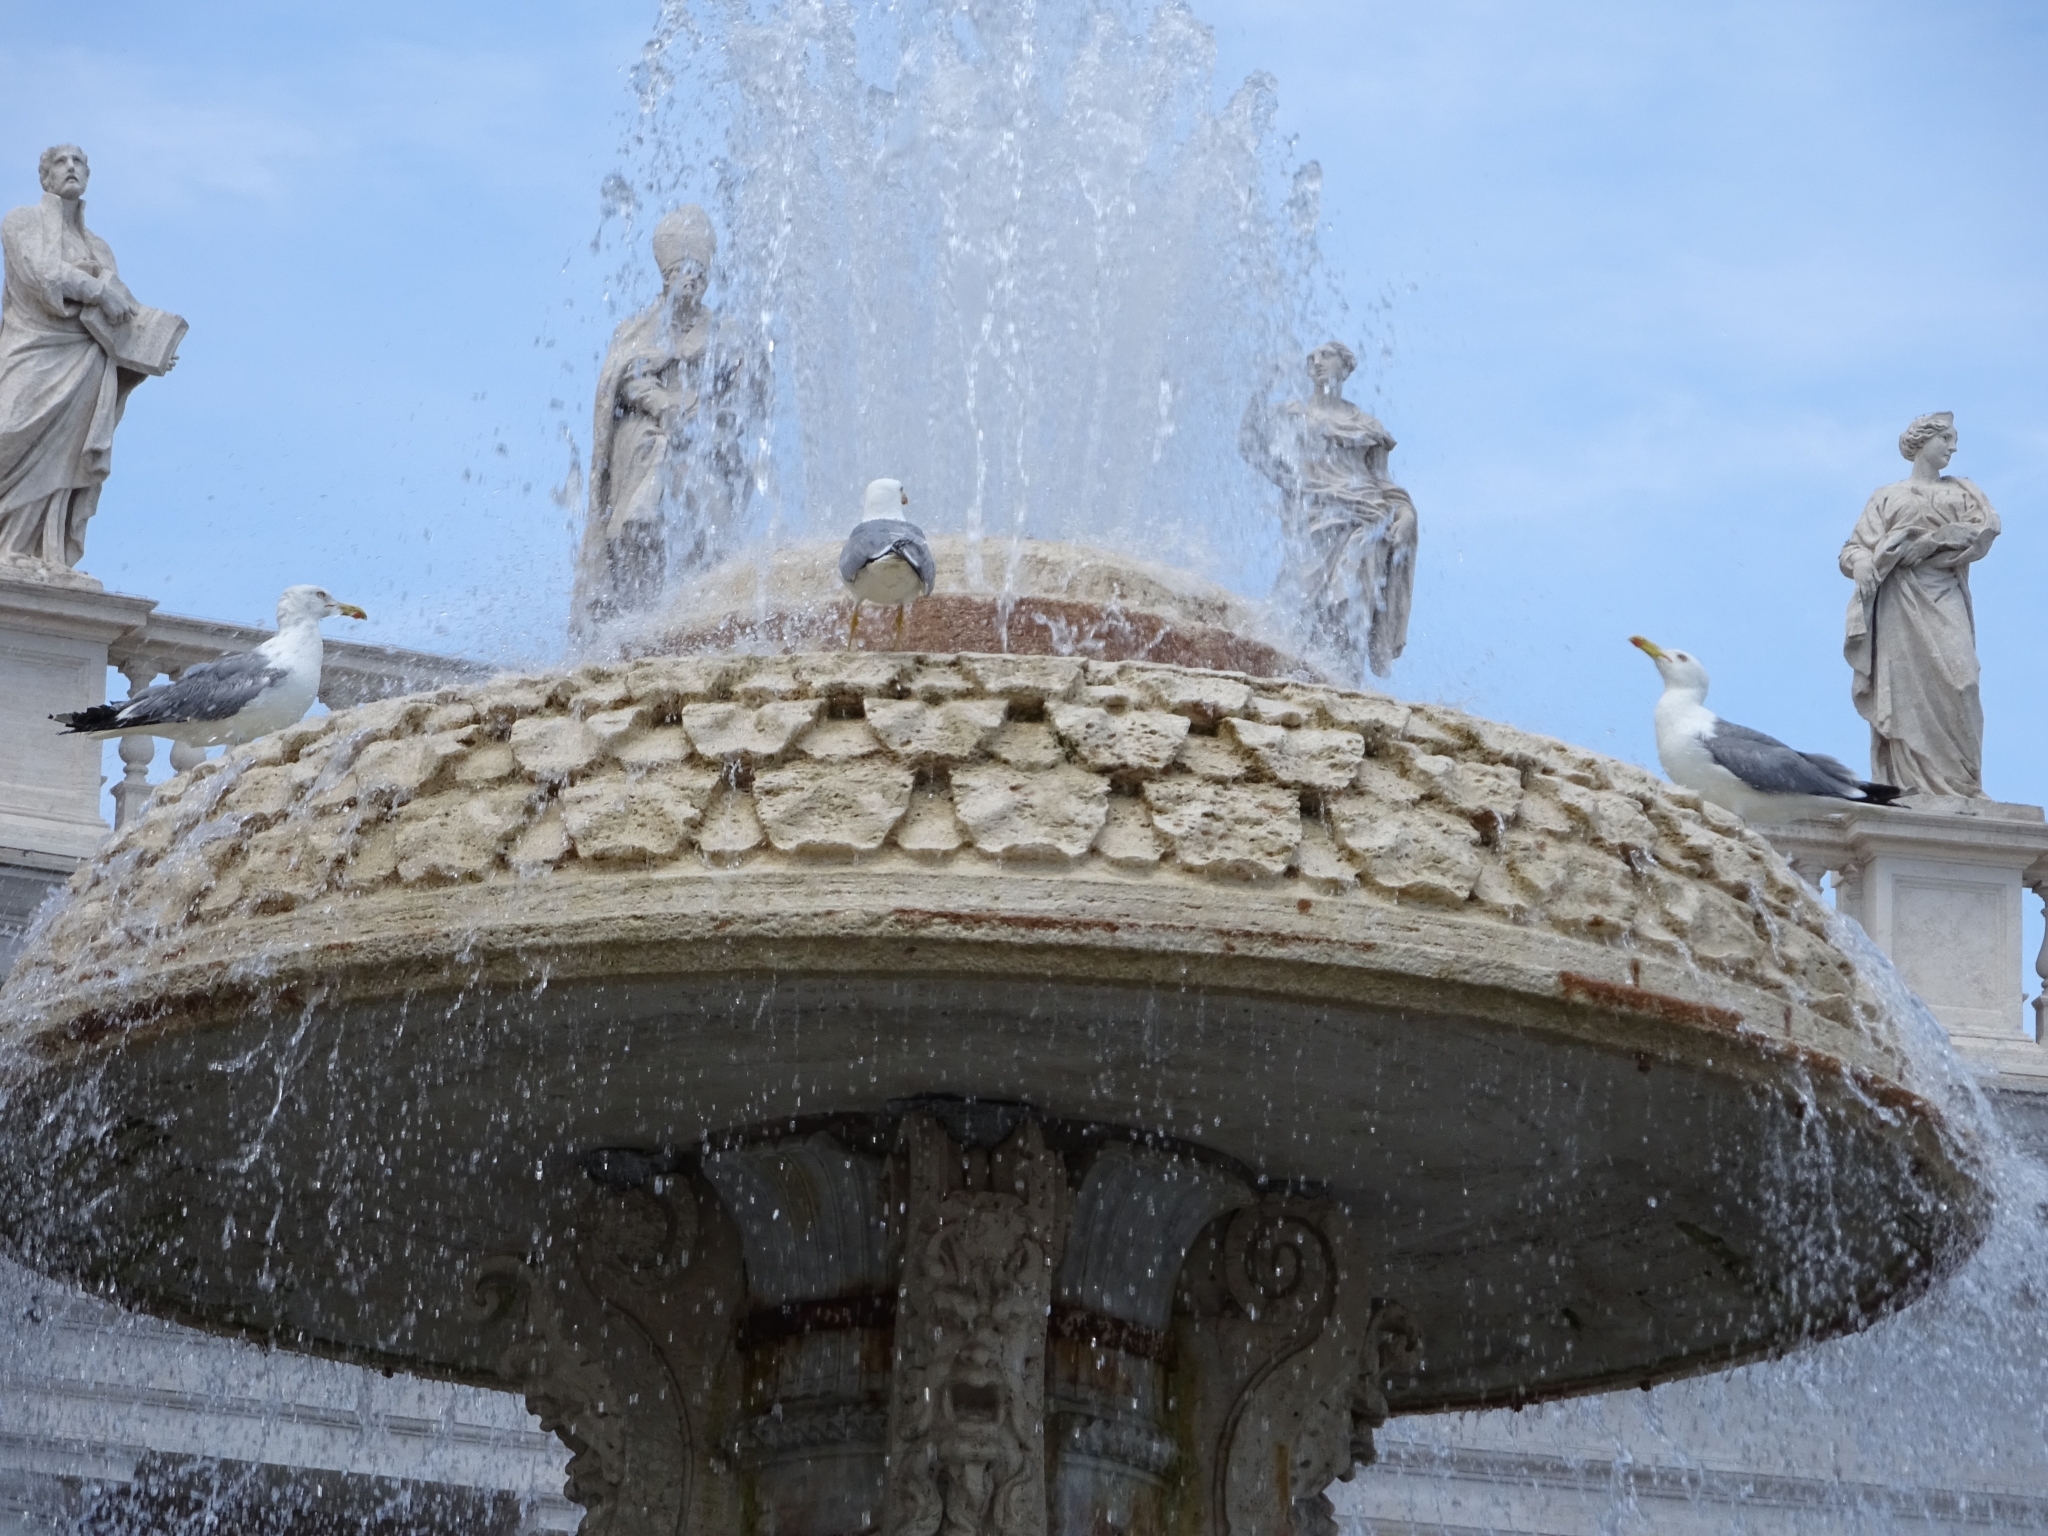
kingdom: Animalia
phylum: Chordata
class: Aves
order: Charadriiformes
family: Laridae
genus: Larus
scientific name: Larus michahellis
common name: Yellow-legged gull
